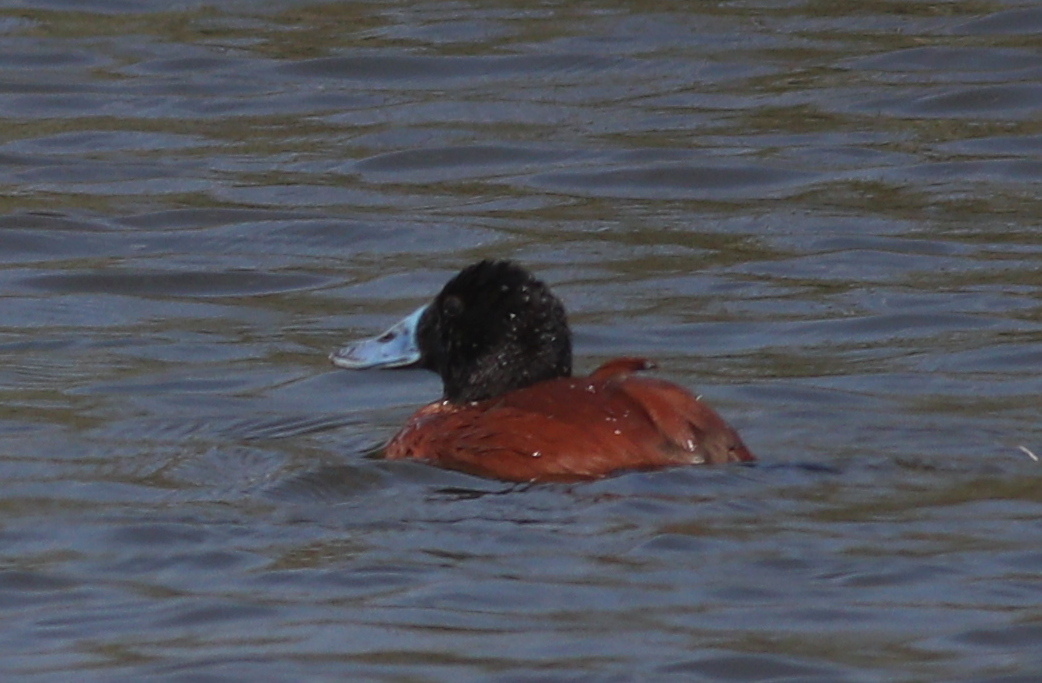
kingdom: Animalia
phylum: Chordata
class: Aves
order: Anseriformes
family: Anatidae
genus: Oxyura
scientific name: Oxyura vittata
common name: Lake duck
